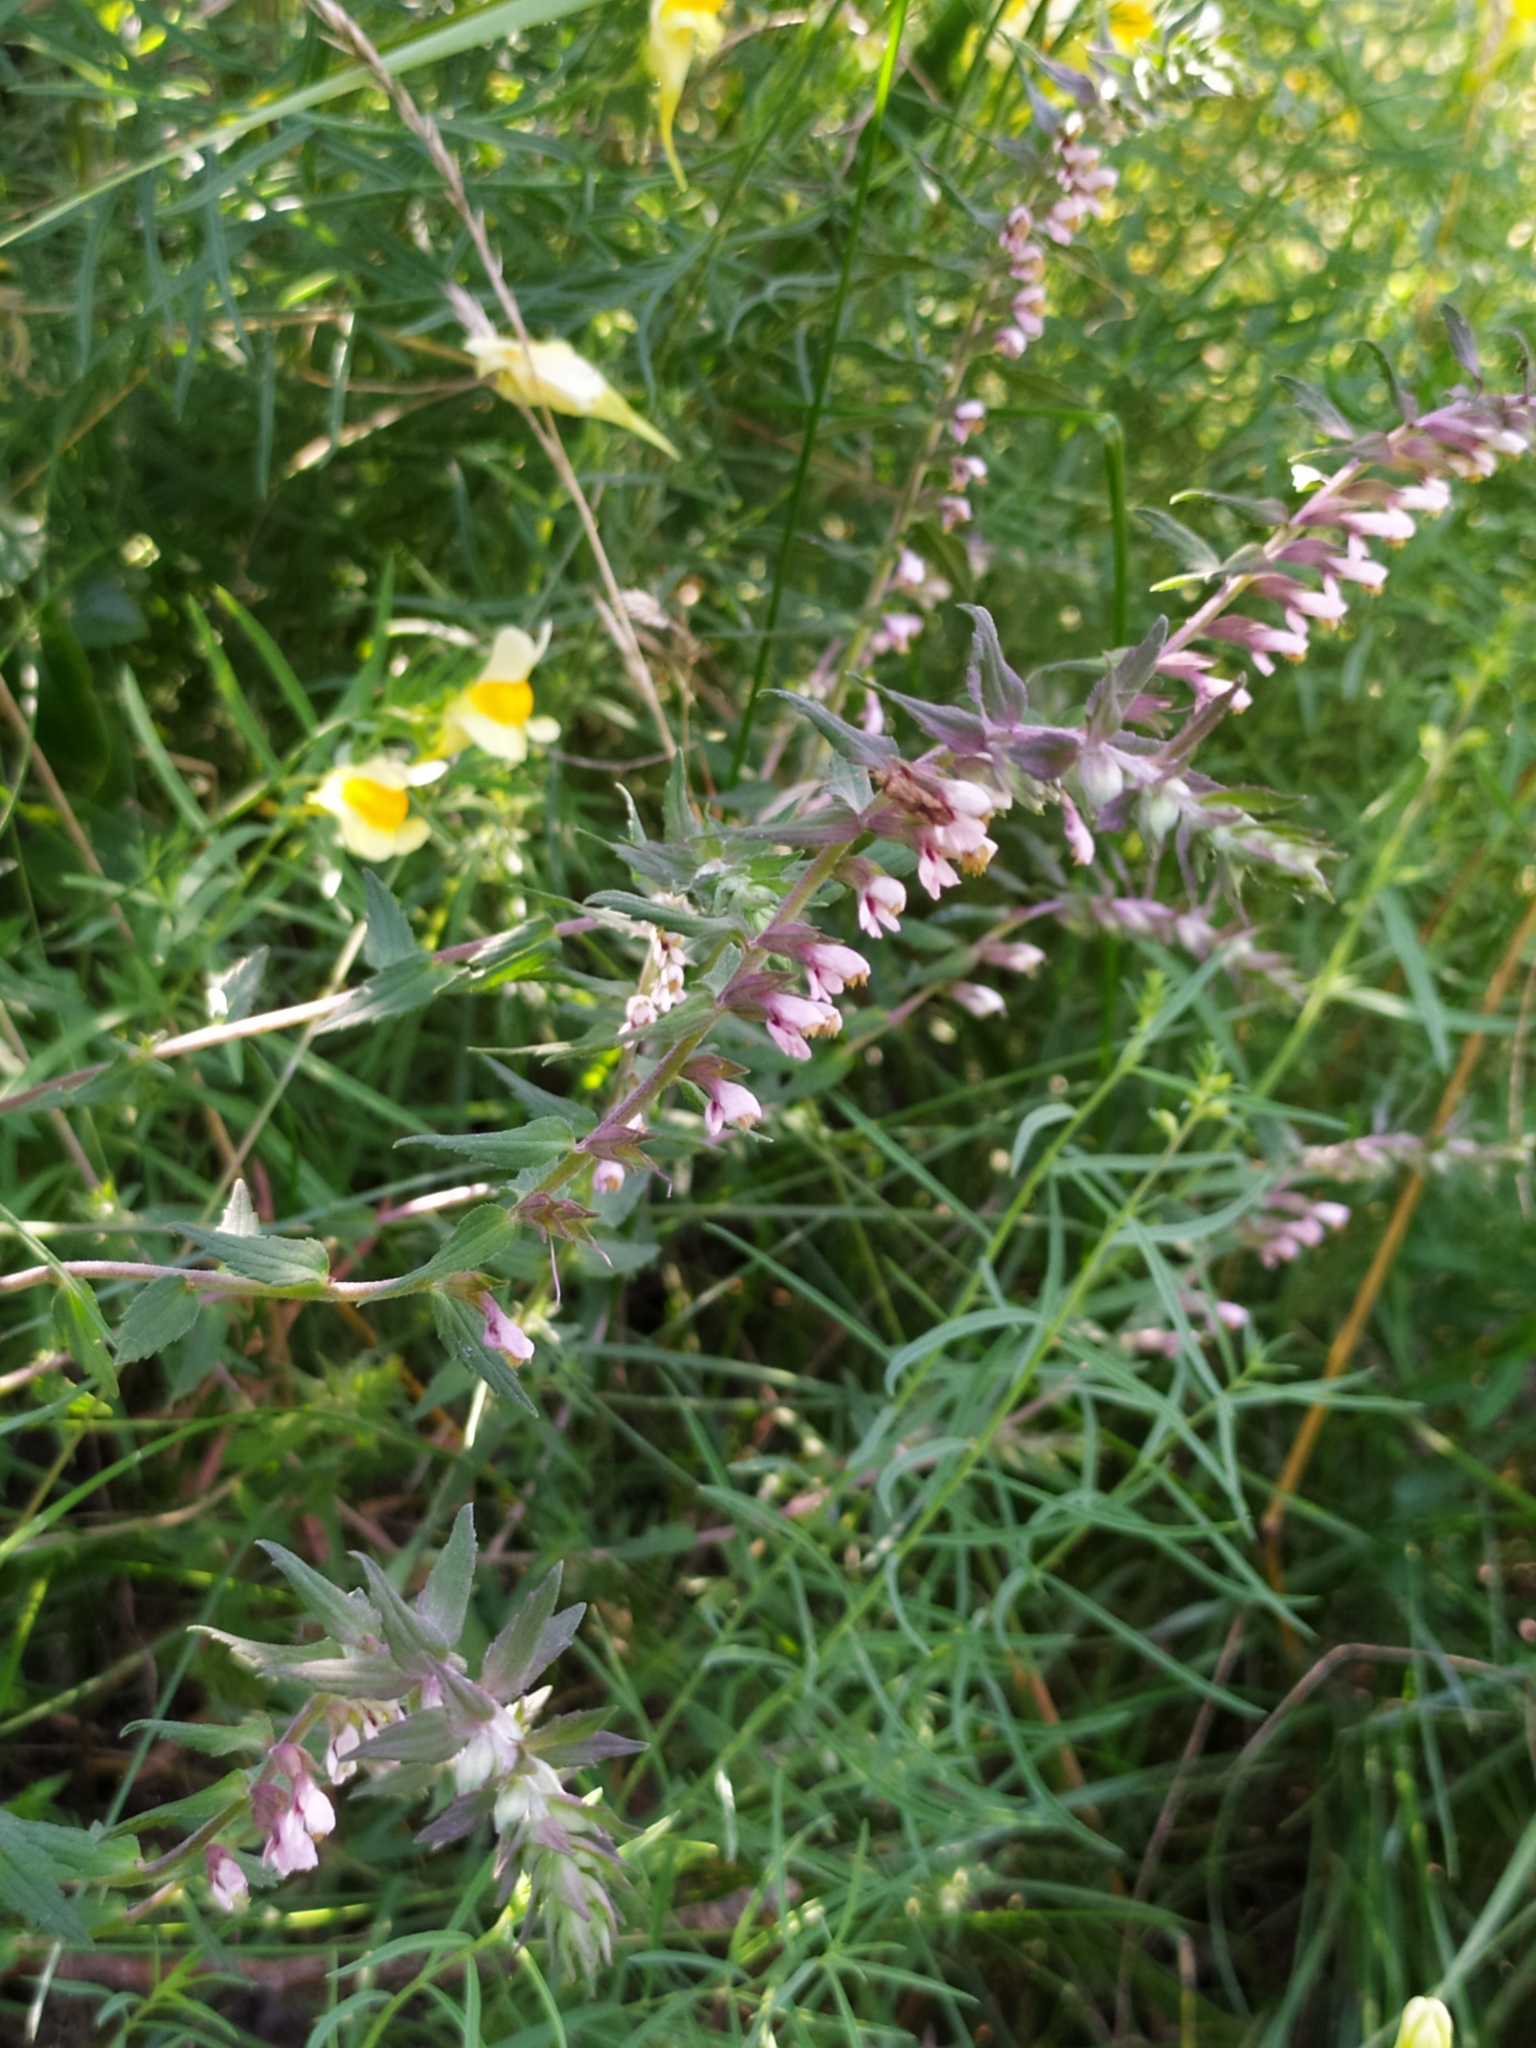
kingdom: Plantae
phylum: Tracheophyta
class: Magnoliopsida
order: Lamiales
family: Orobanchaceae
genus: Odontites
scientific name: Odontites vulgaris
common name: Broomrape
